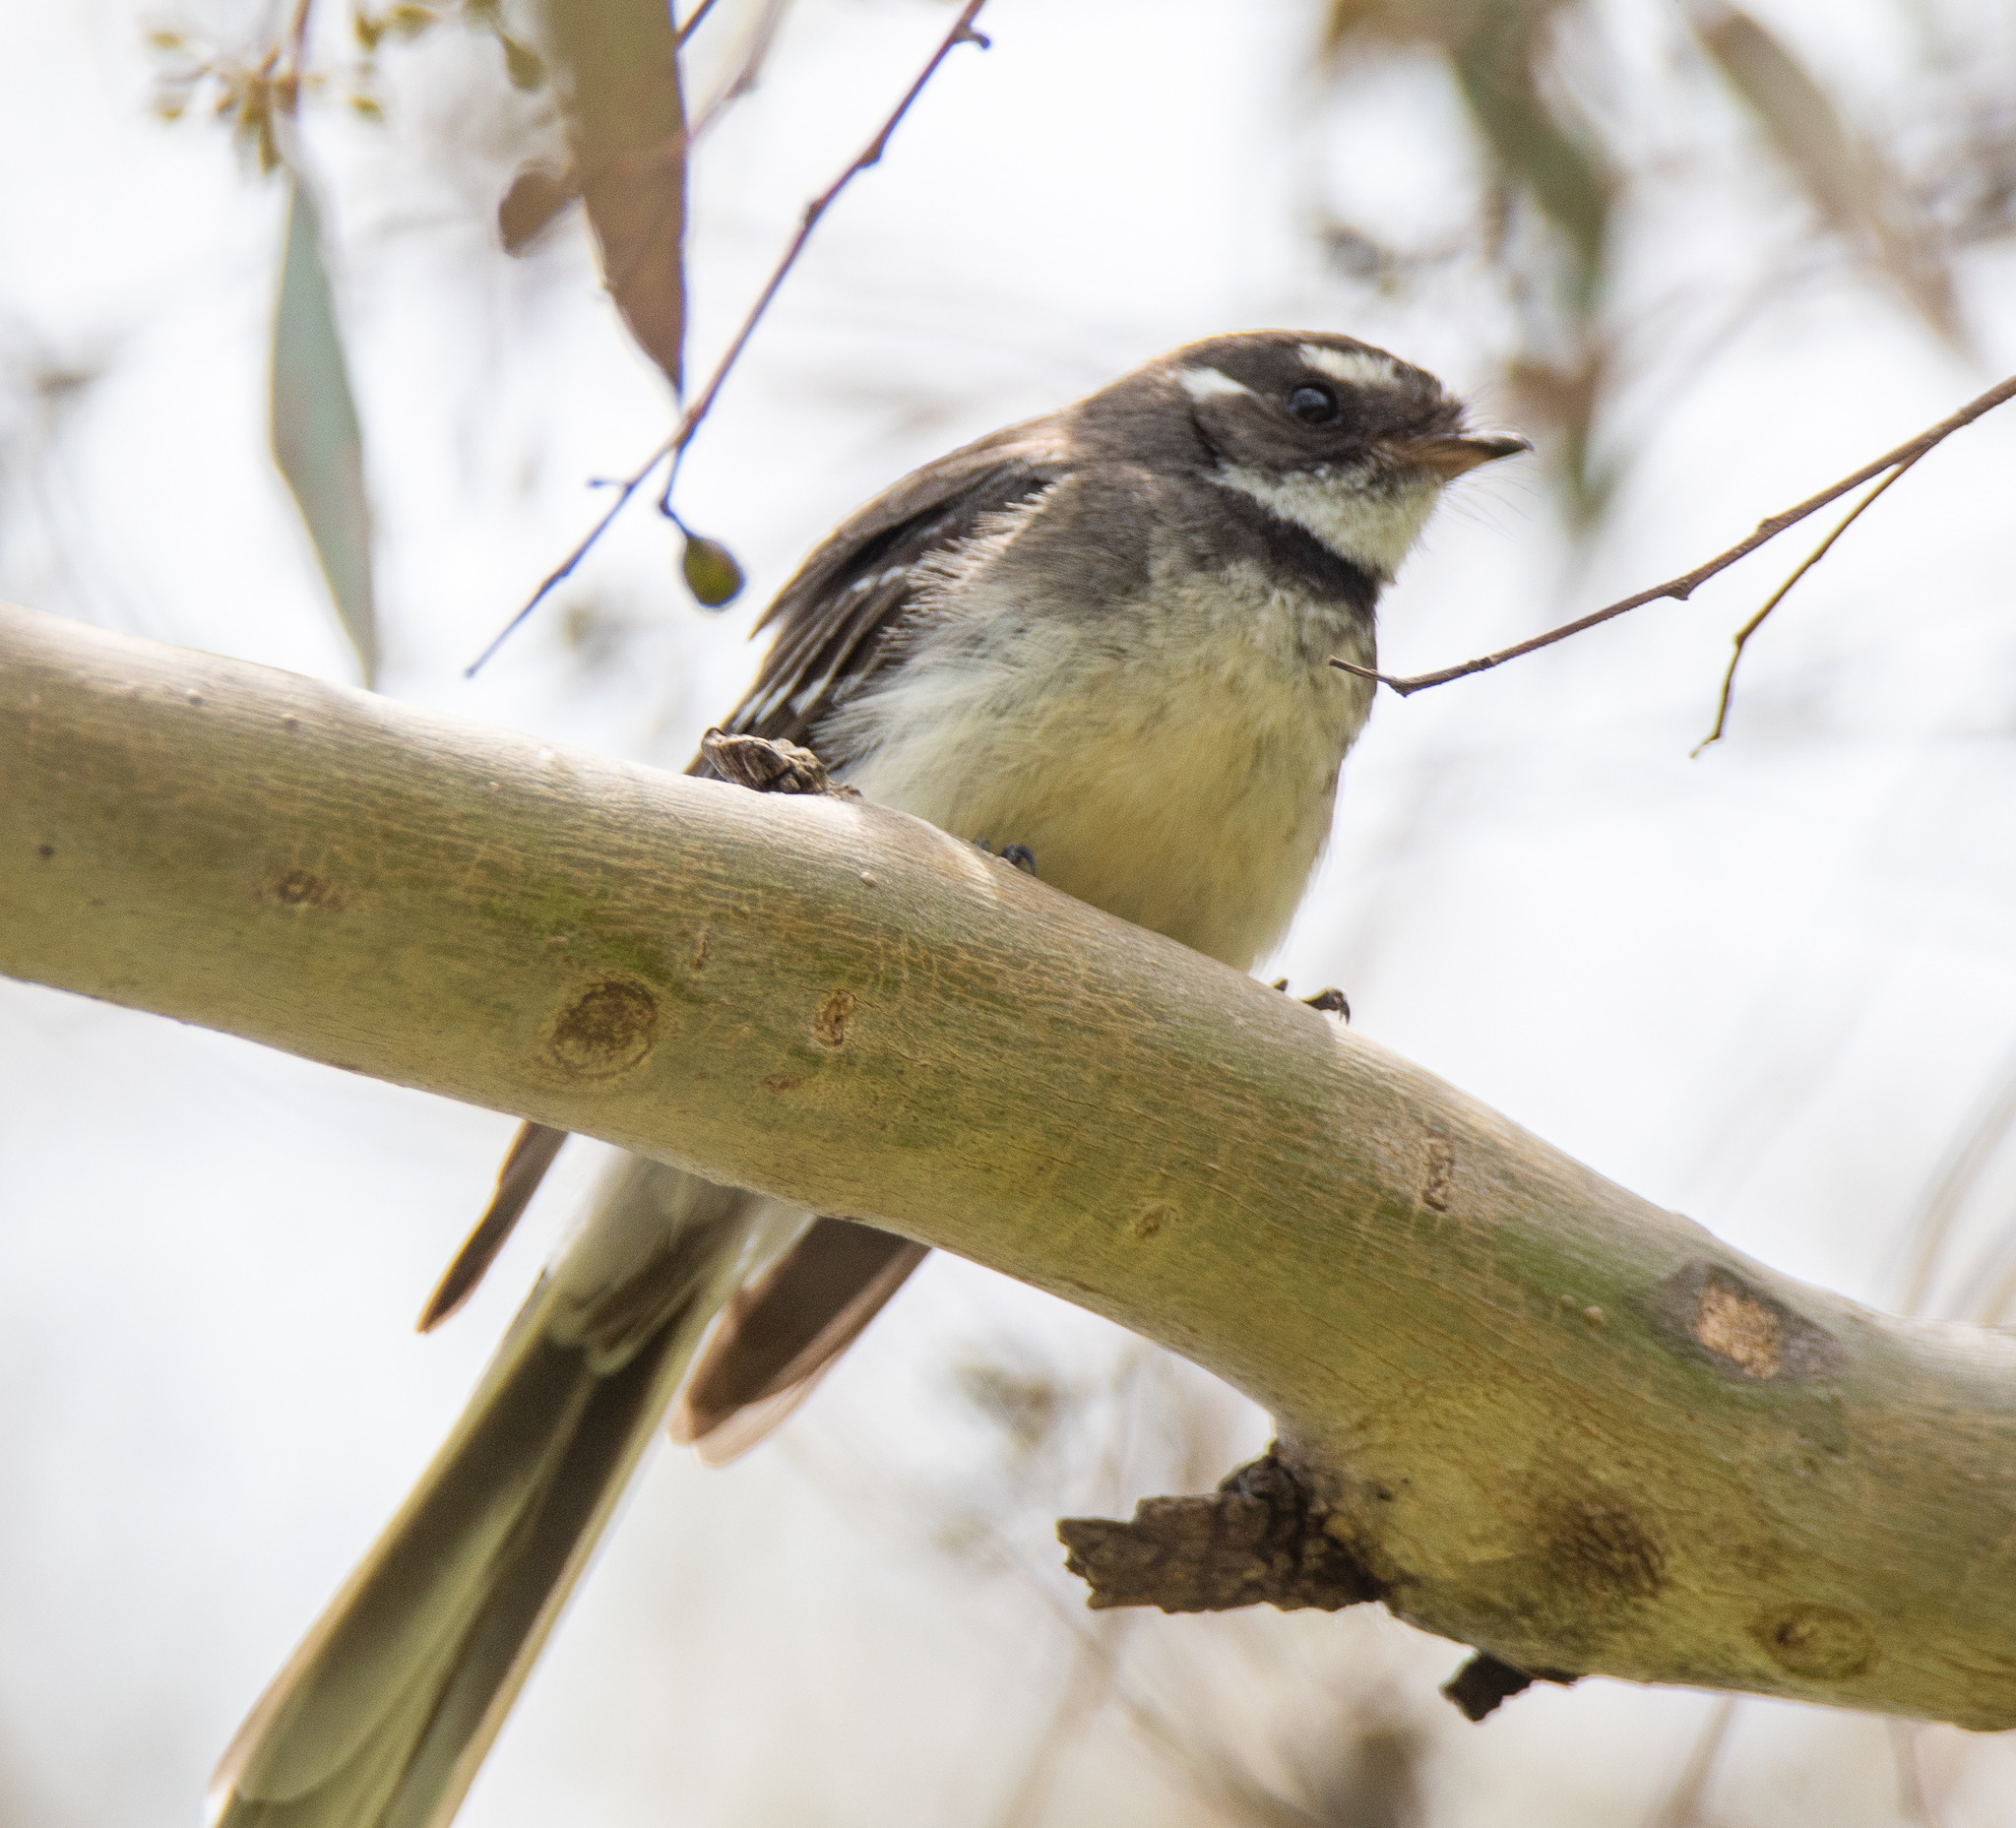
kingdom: Animalia
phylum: Chordata
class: Aves
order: Passeriformes
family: Rhipiduridae
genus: Rhipidura
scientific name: Rhipidura albiscapa
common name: Grey fantail
